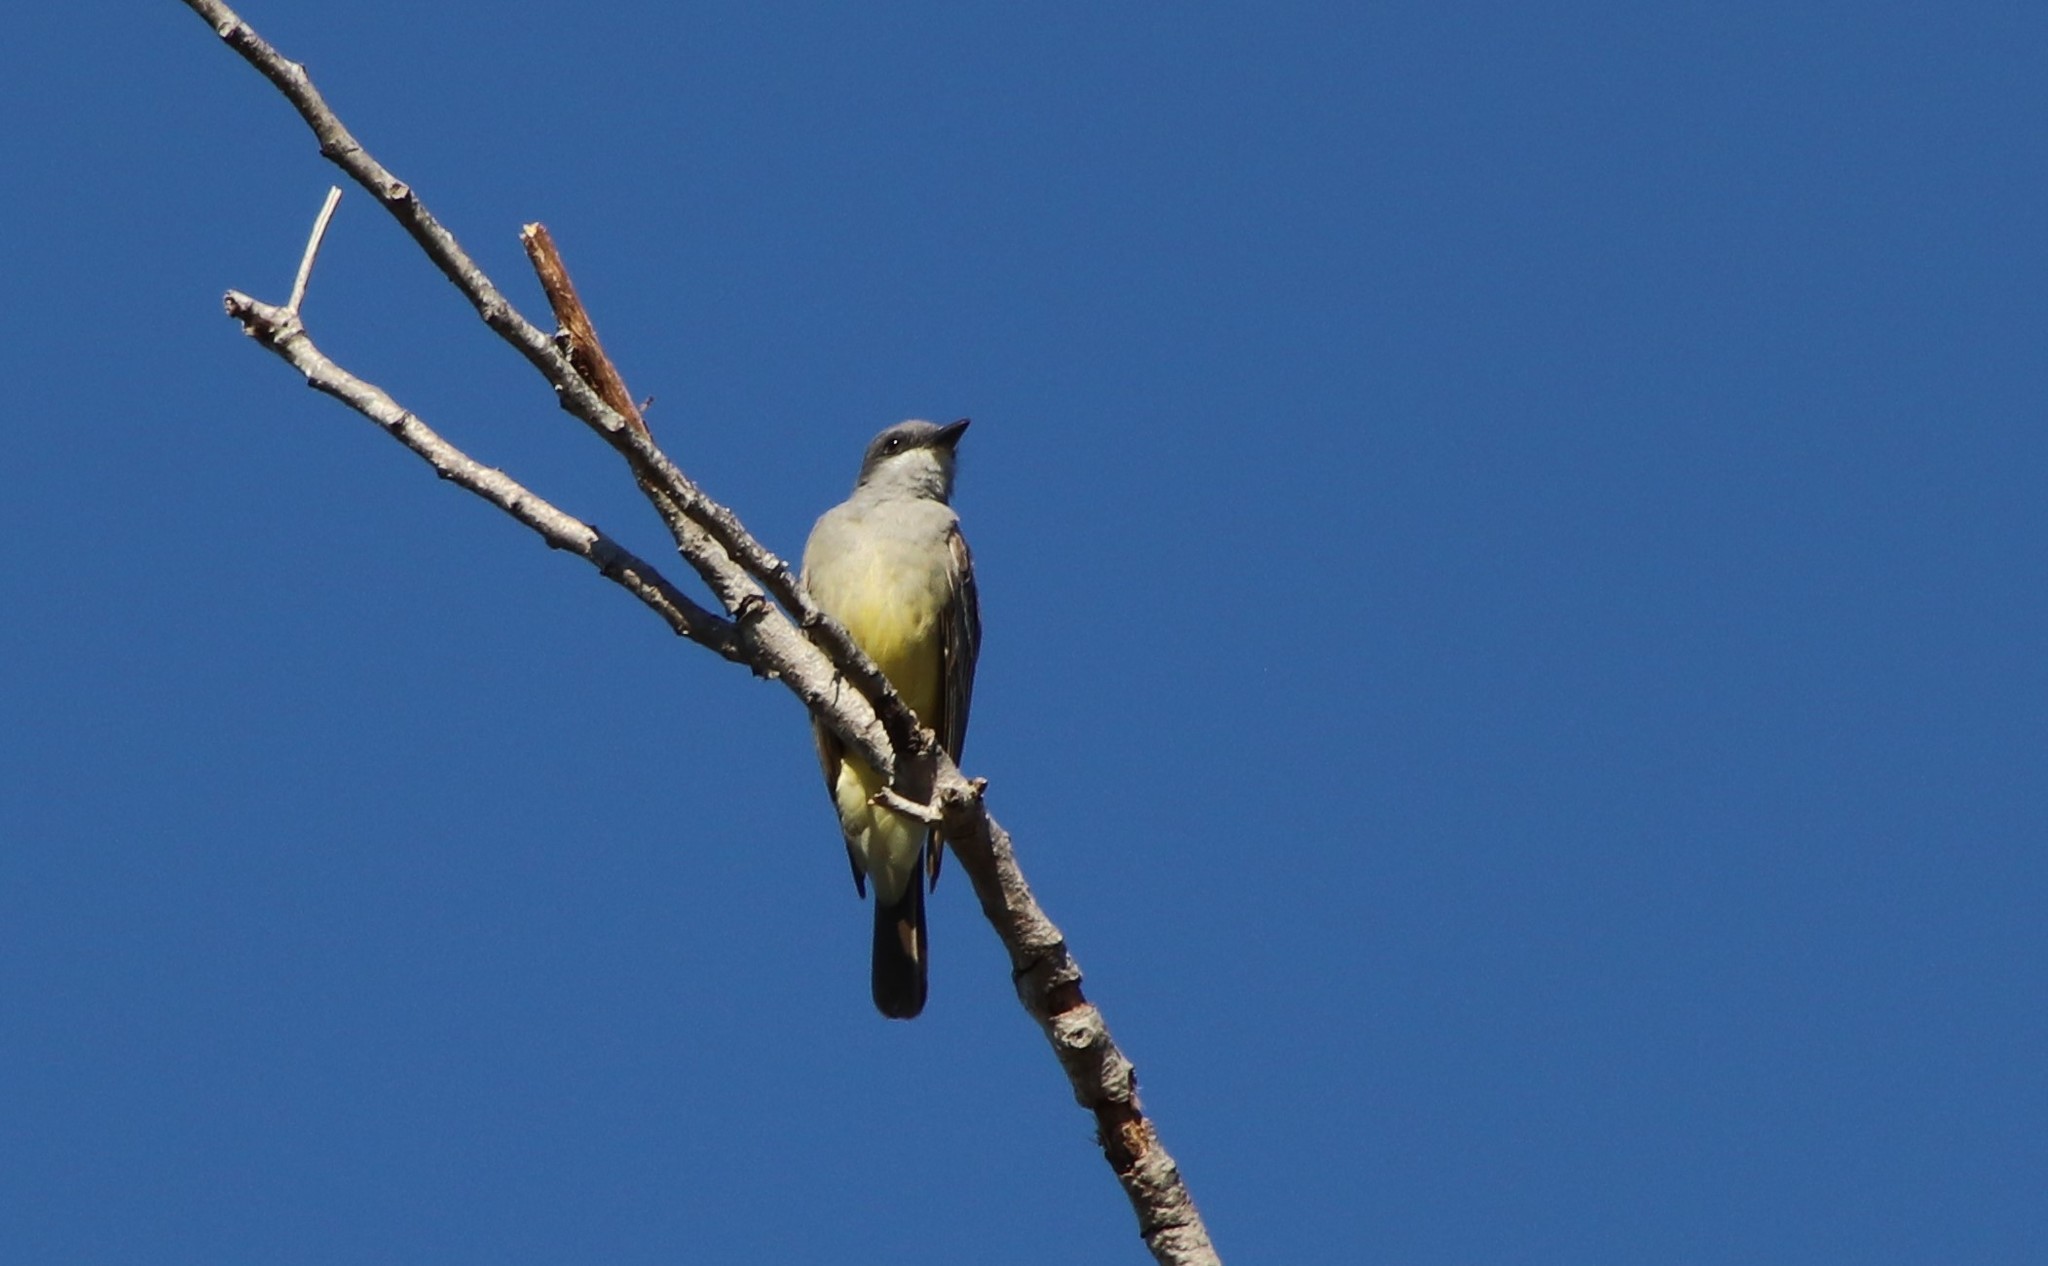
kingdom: Animalia
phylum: Chordata
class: Aves
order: Passeriformes
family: Tyrannidae
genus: Tyrannus
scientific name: Tyrannus vociferans
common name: Cassin's kingbird
